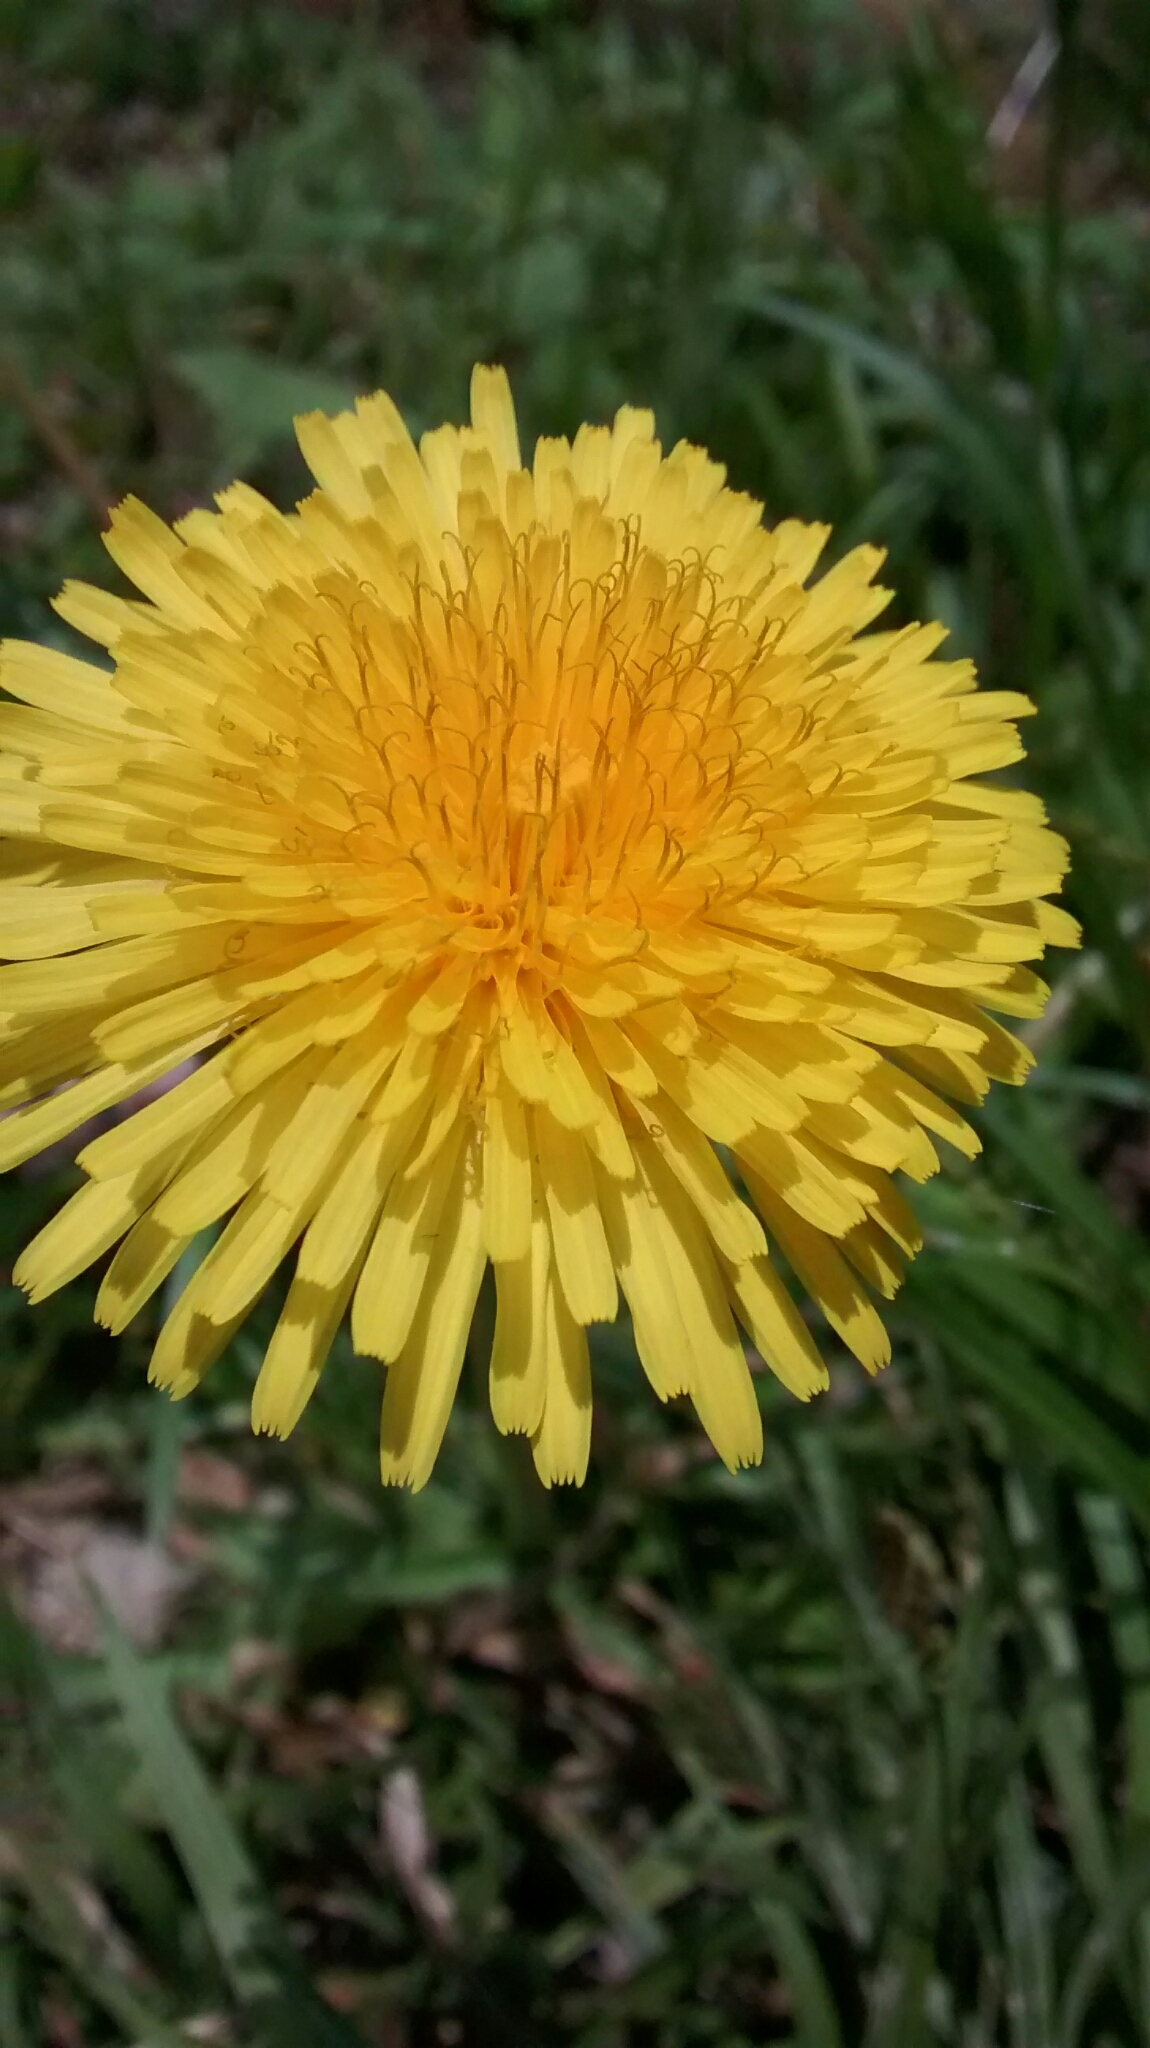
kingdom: Plantae
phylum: Tracheophyta
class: Magnoliopsida
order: Asterales
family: Asteraceae
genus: Taraxacum
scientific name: Taraxacum officinale
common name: Common dandelion
